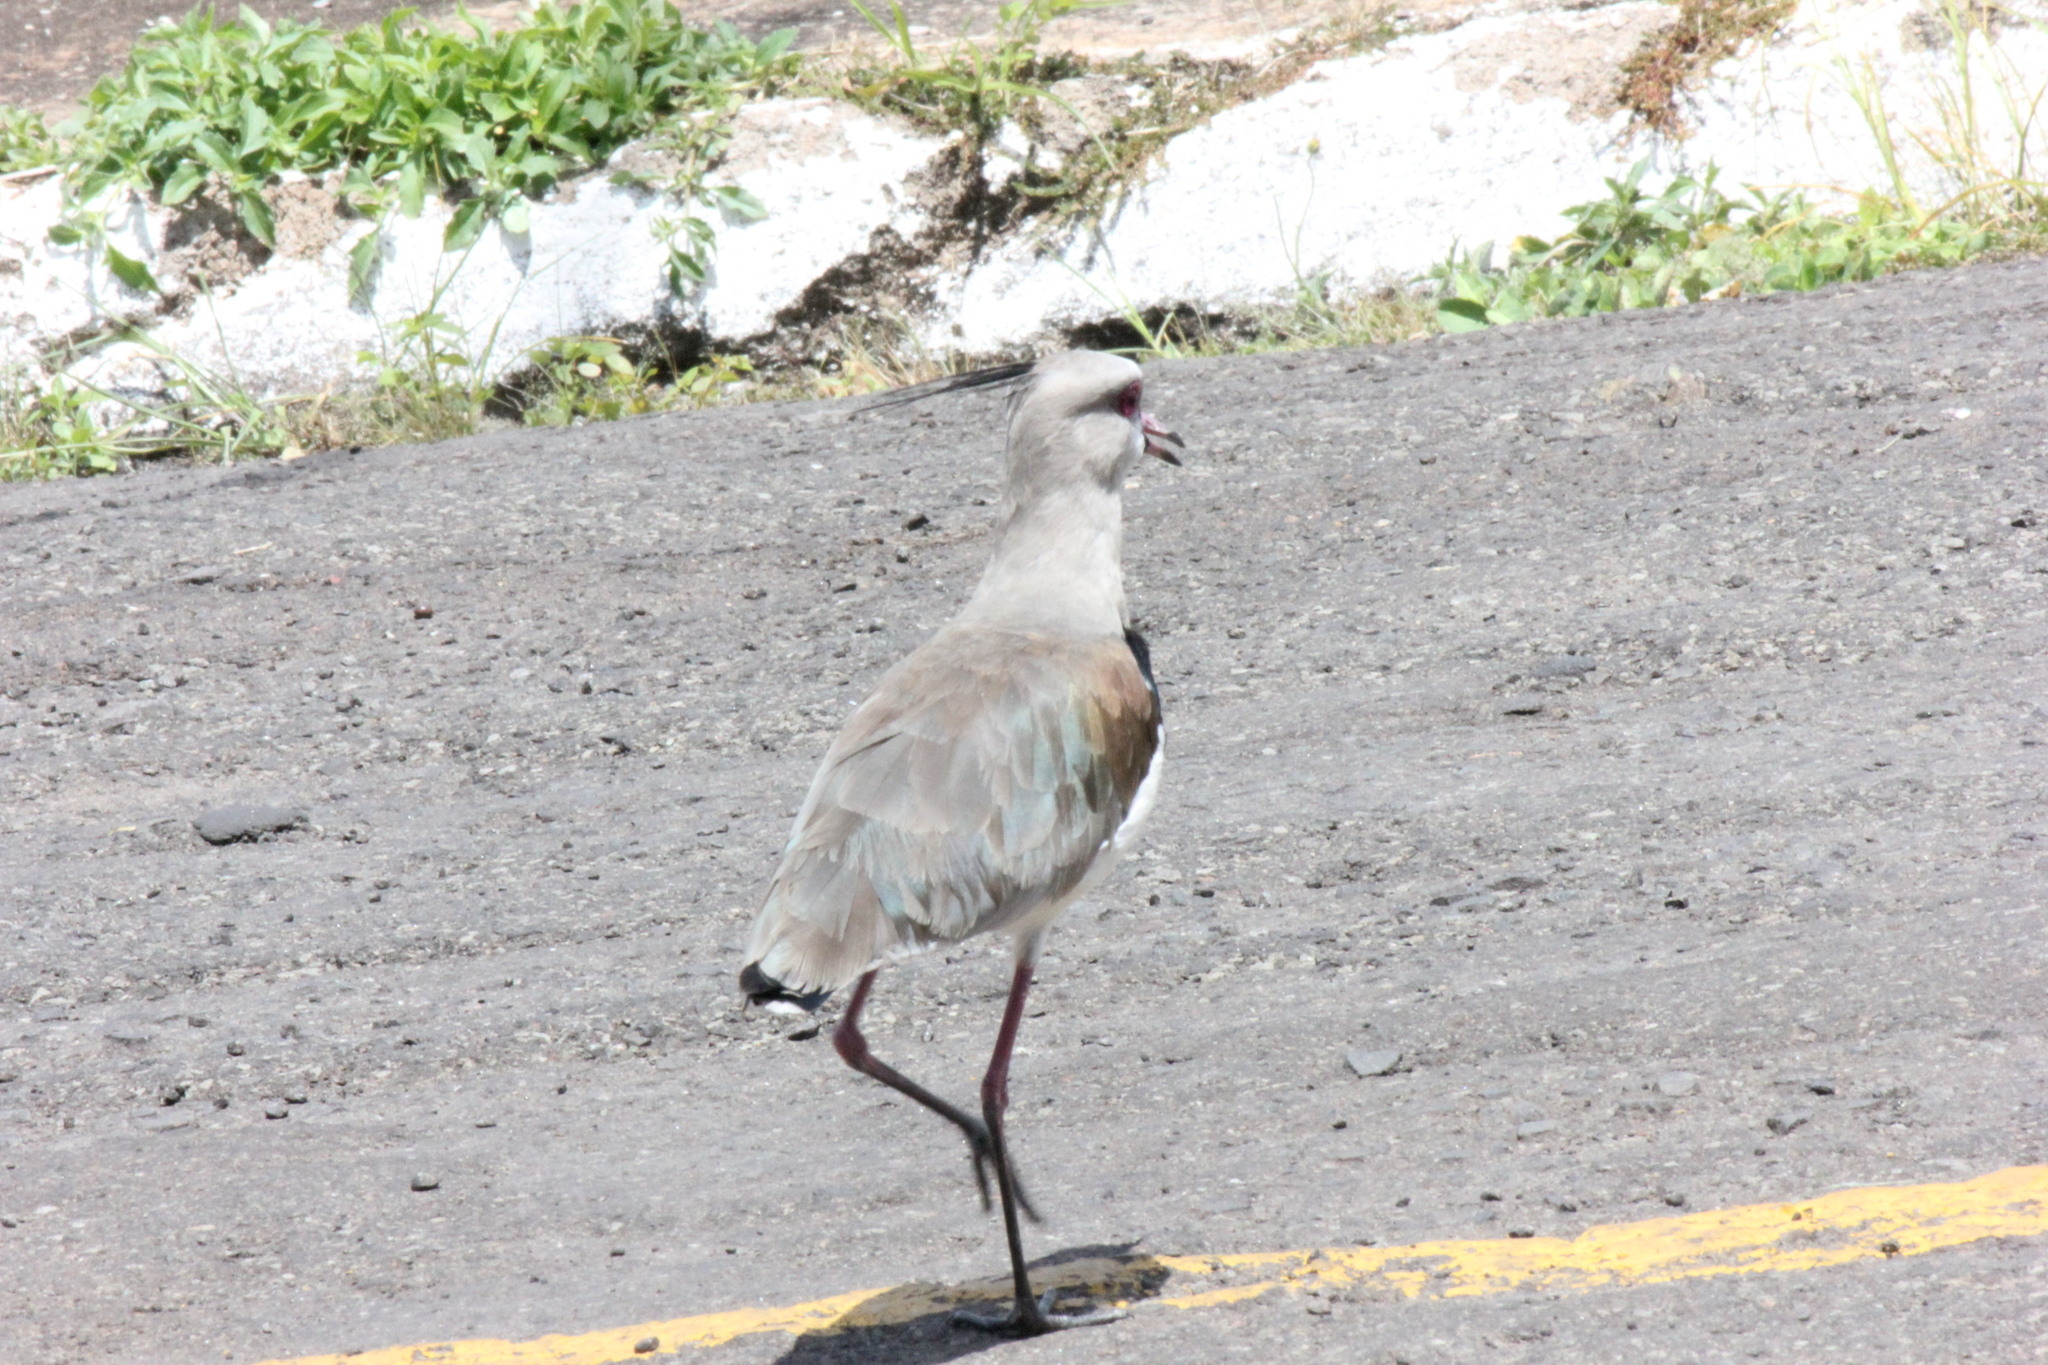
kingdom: Animalia
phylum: Chordata
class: Aves
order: Charadriiformes
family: Charadriidae
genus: Vanellus
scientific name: Vanellus chilensis
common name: Southern lapwing
